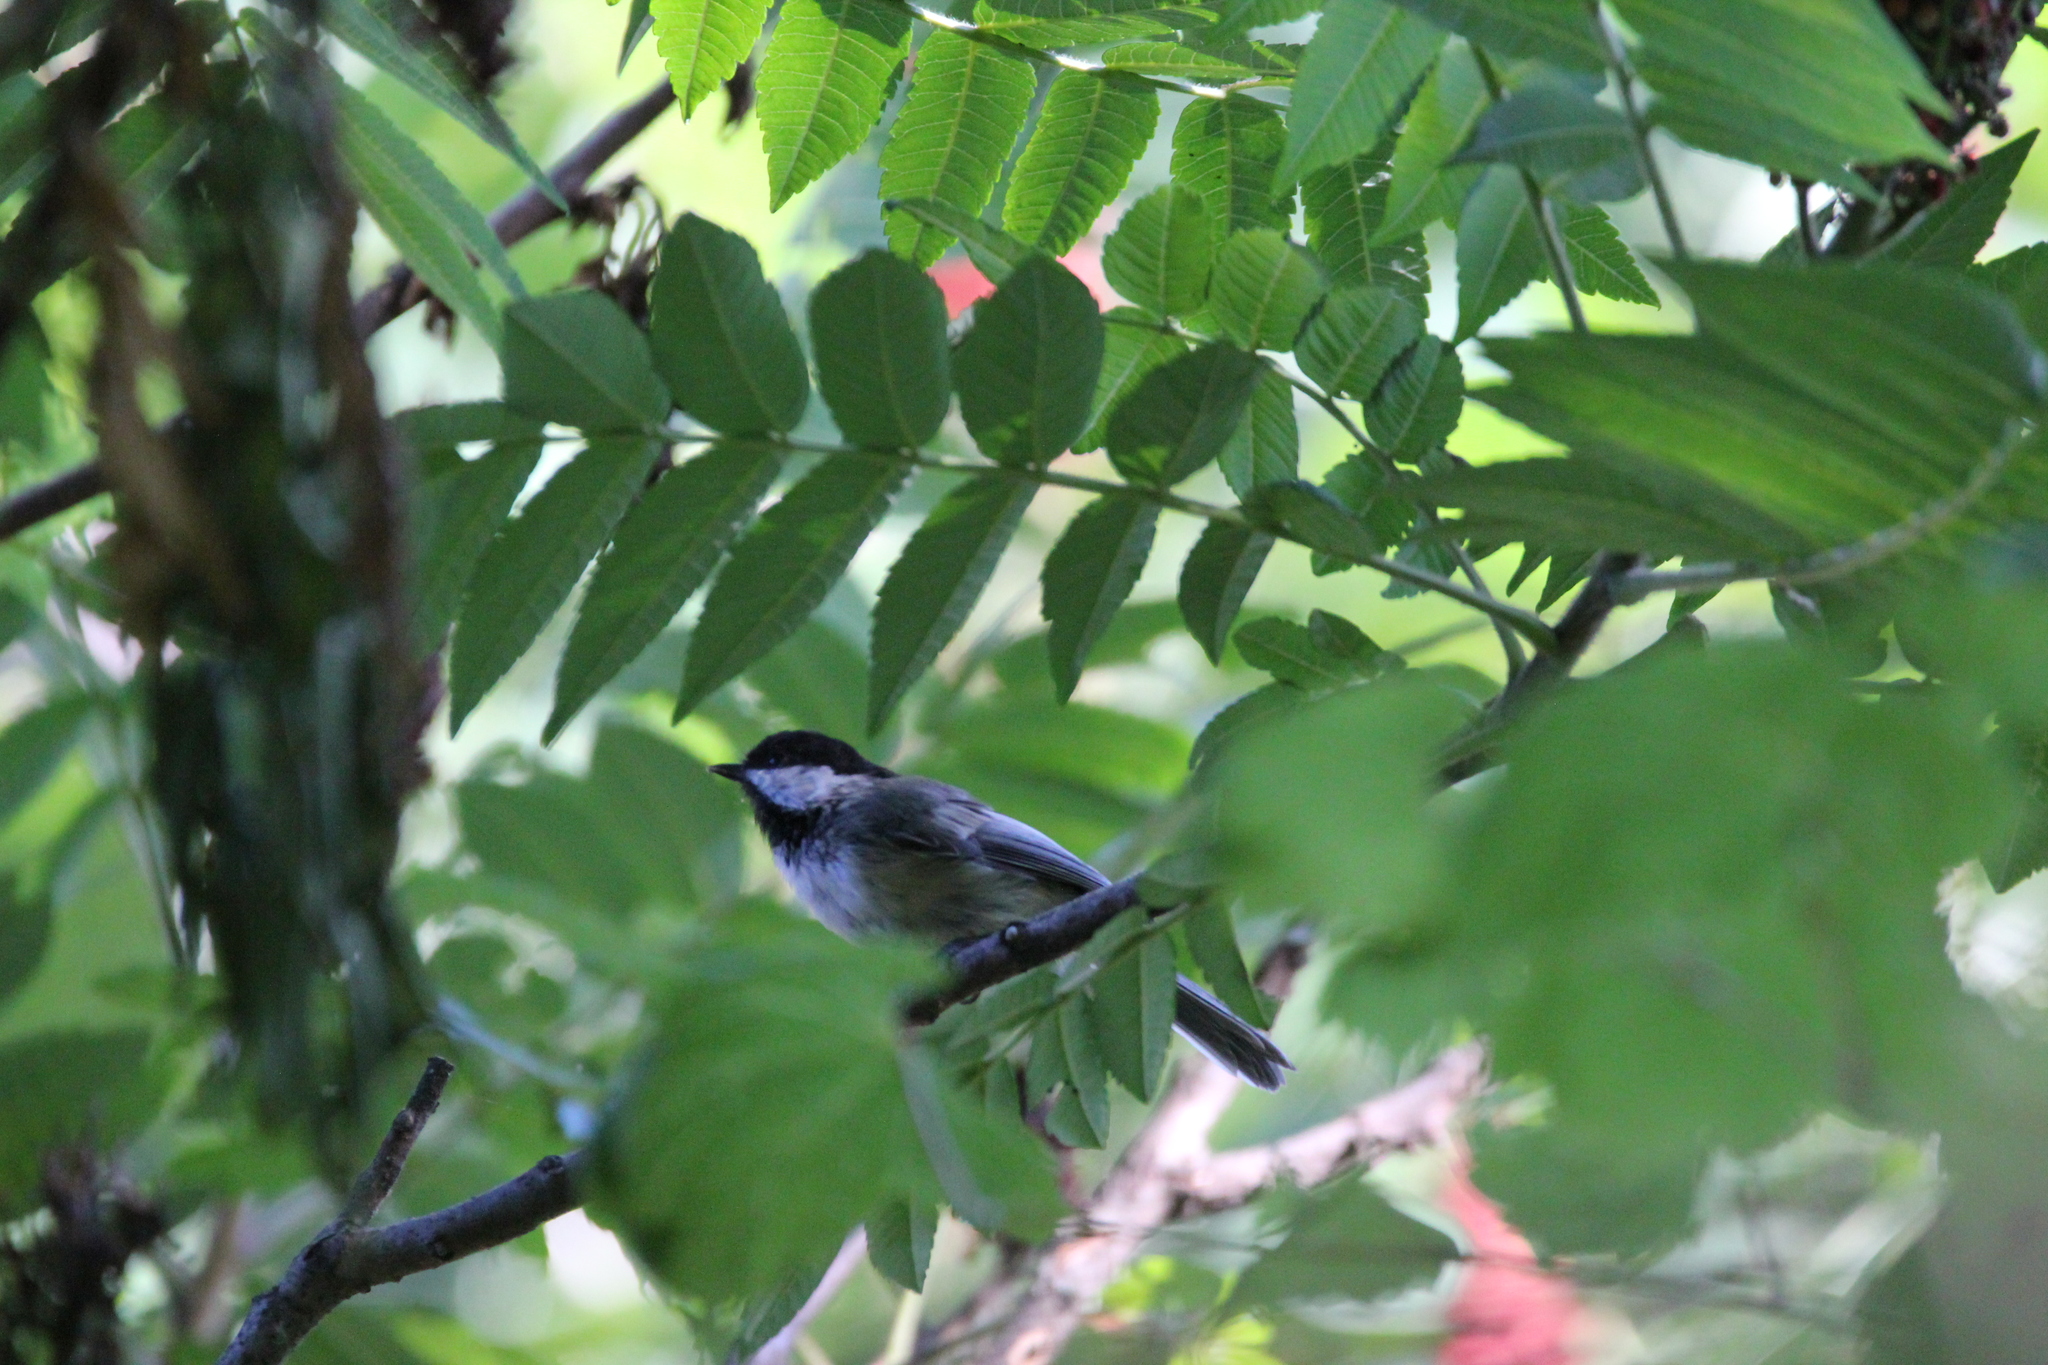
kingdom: Animalia
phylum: Chordata
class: Aves
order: Passeriformes
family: Paridae
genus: Poecile
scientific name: Poecile atricapillus
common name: Black-capped chickadee
